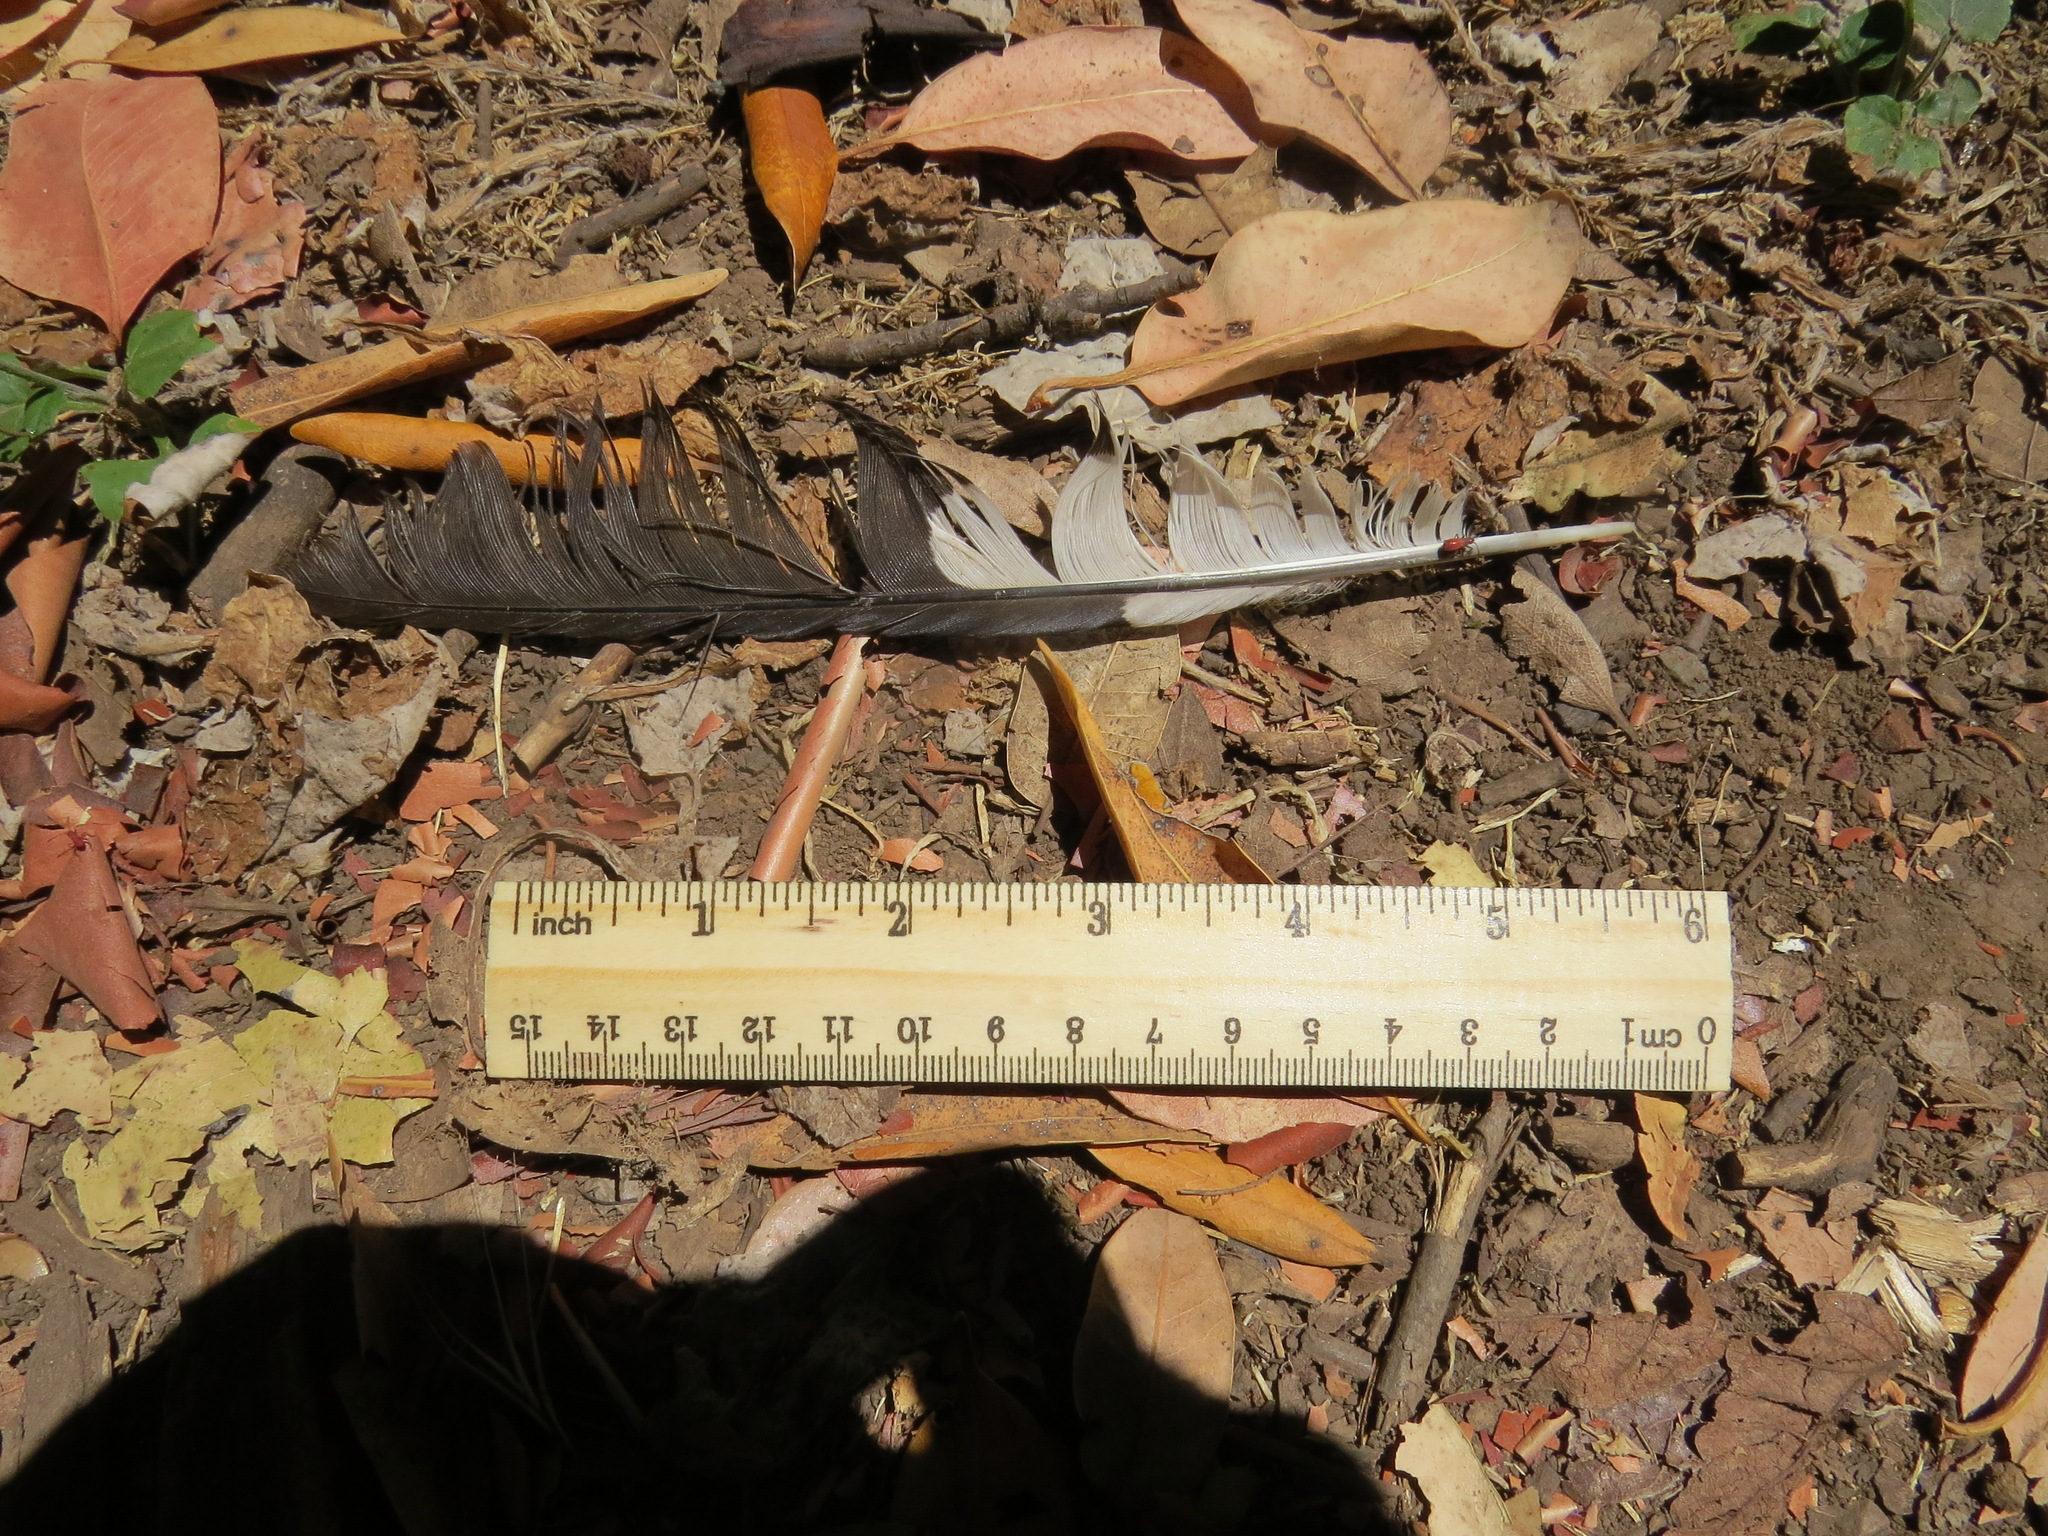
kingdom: Animalia
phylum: Chordata
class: Aves
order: Piciformes
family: Picidae
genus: Dryocopus
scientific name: Dryocopus pileatus
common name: Pileated woodpecker
